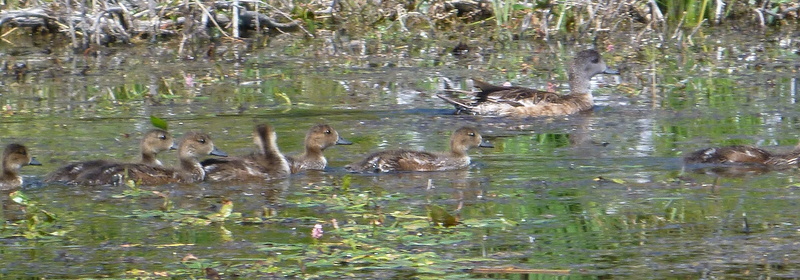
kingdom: Animalia
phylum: Chordata
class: Aves
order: Anseriformes
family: Anatidae
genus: Mareca
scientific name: Mareca americana
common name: American wigeon
